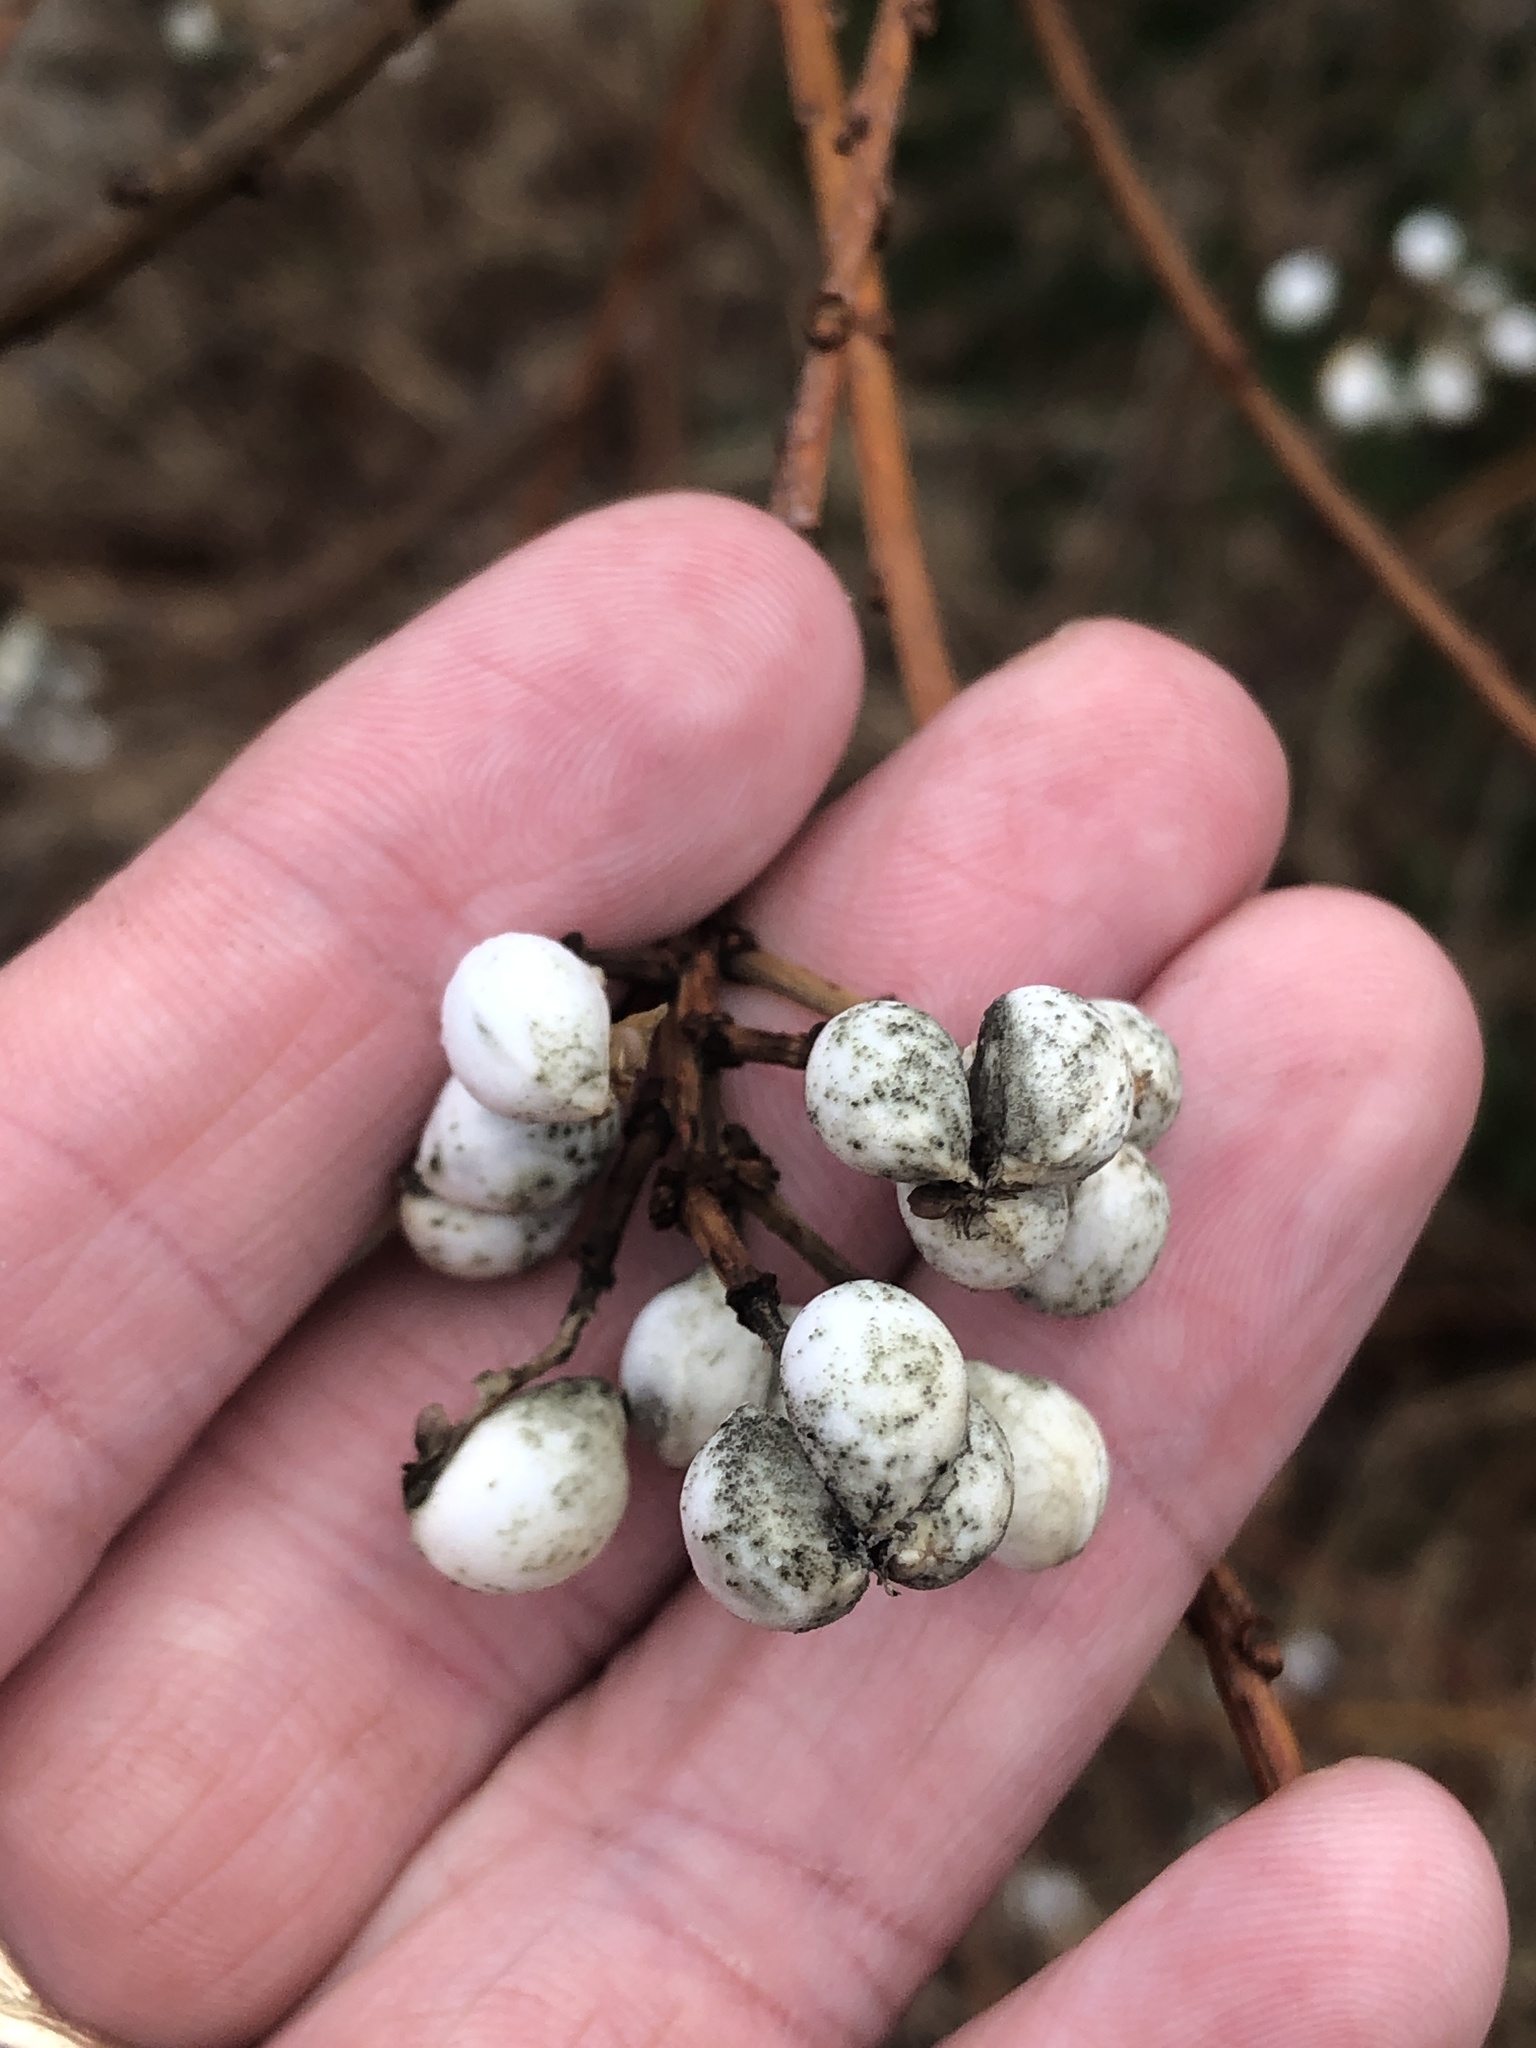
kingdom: Plantae
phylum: Tracheophyta
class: Magnoliopsida
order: Malpighiales
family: Euphorbiaceae
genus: Triadica
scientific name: Triadica sebifera
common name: Chinese tallow
